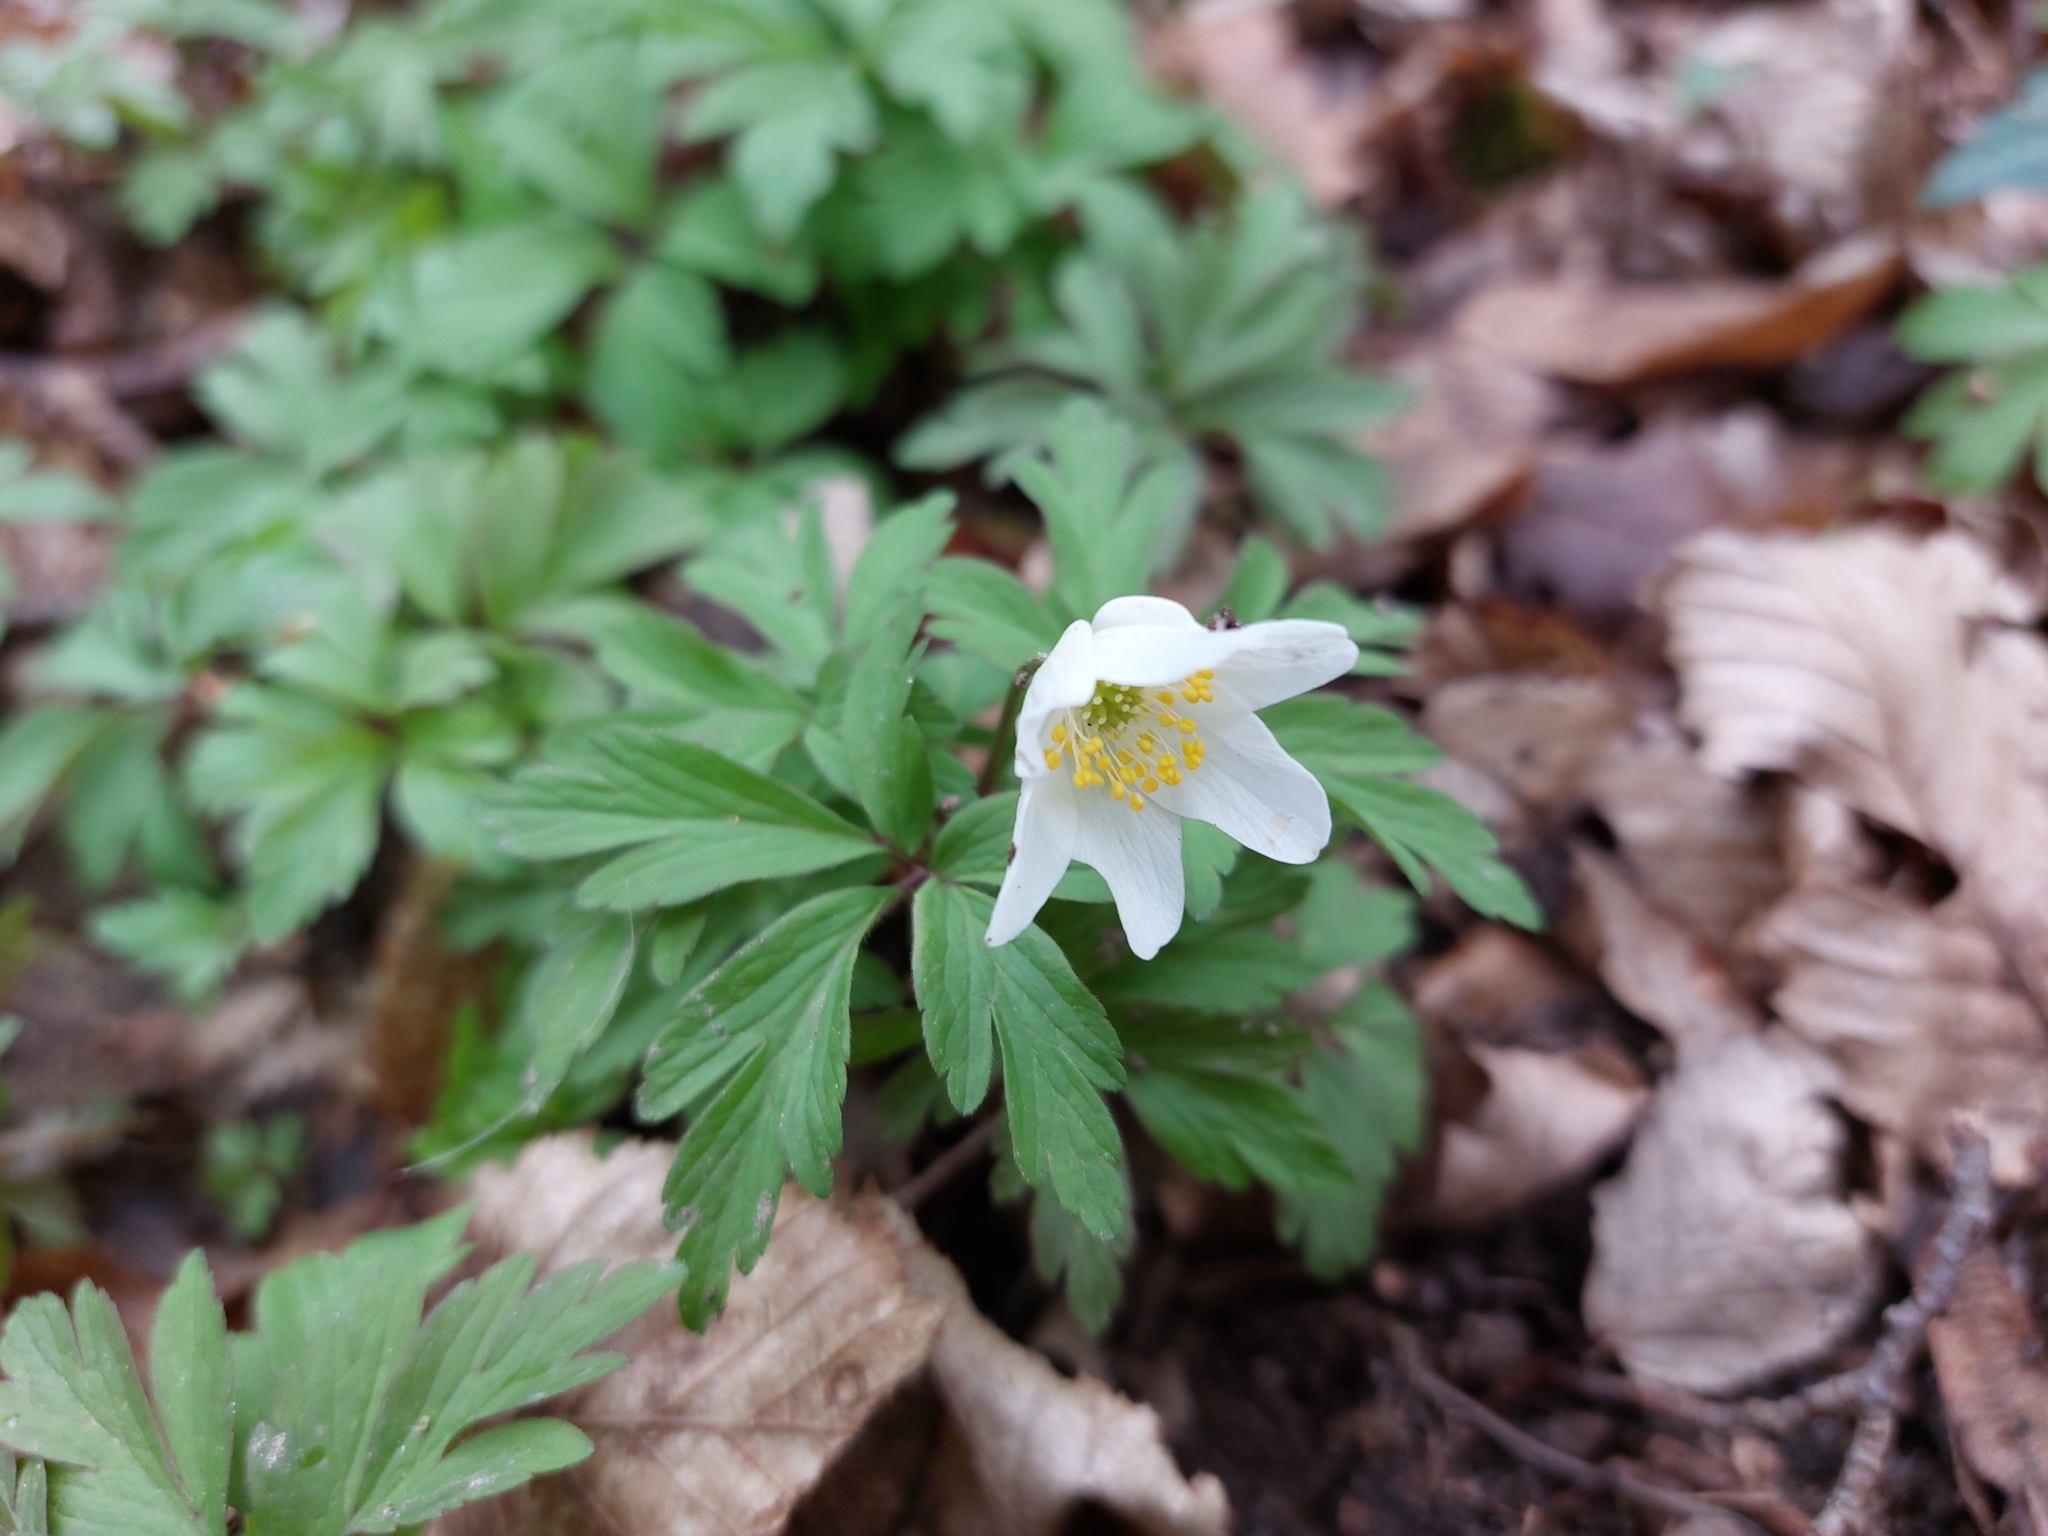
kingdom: Plantae
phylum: Tracheophyta
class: Magnoliopsida
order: Ranunculales
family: Ranunculaceae
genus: Anemone
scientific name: Anemone nemorosa
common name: Wood anemone
